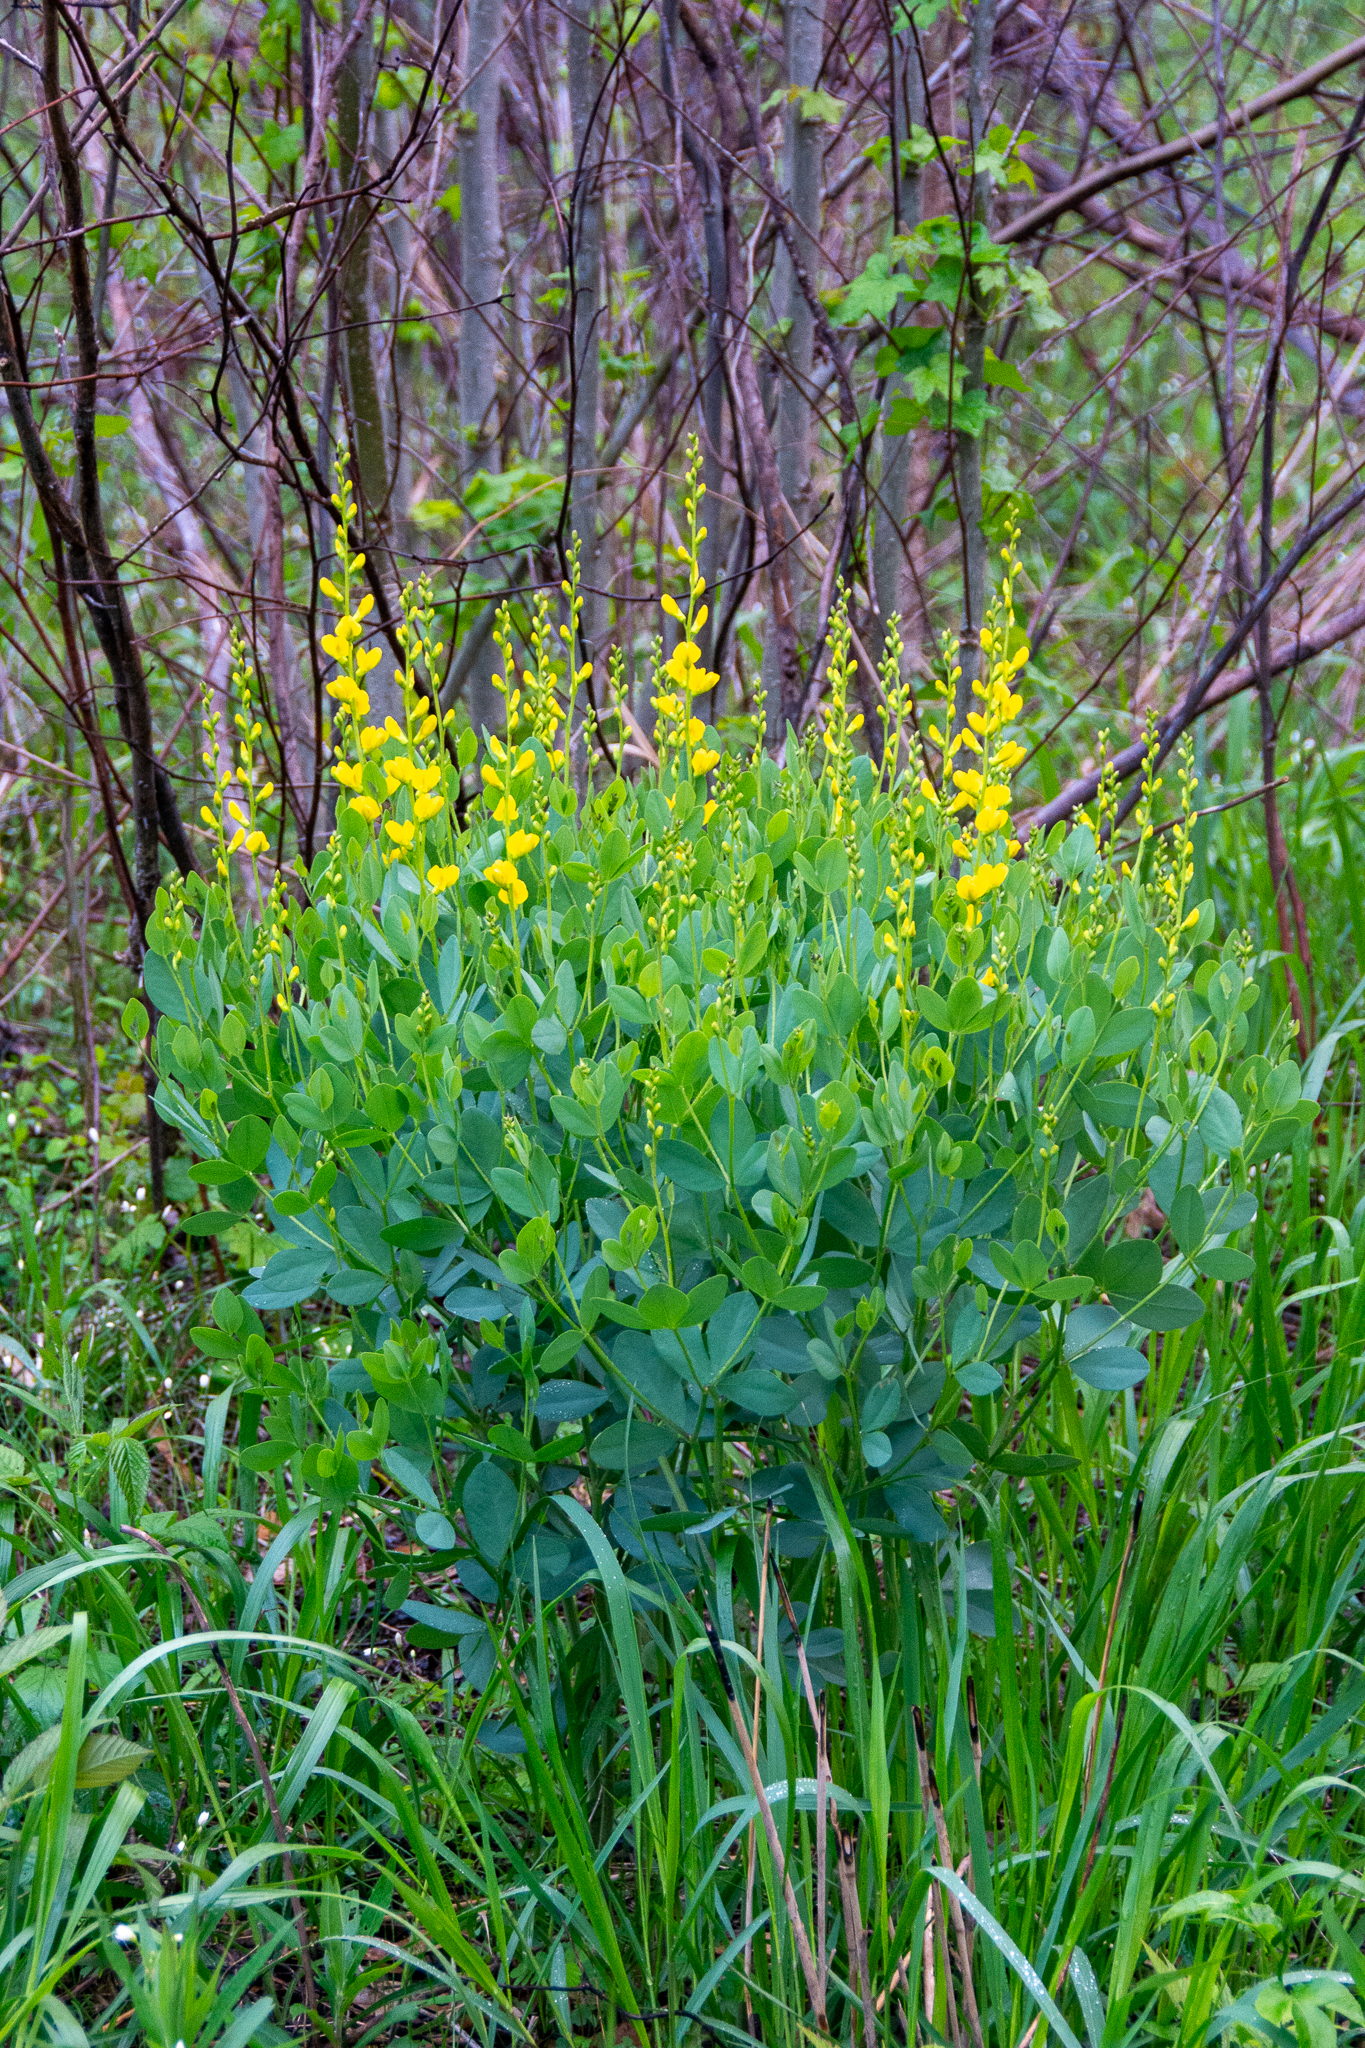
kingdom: Plantae
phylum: Tracheophyta
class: Magnoliopsida
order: Fabales
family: Fabaceae
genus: Baptisia
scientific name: Baptisia sphaerocarpa
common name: Round wild indigo
